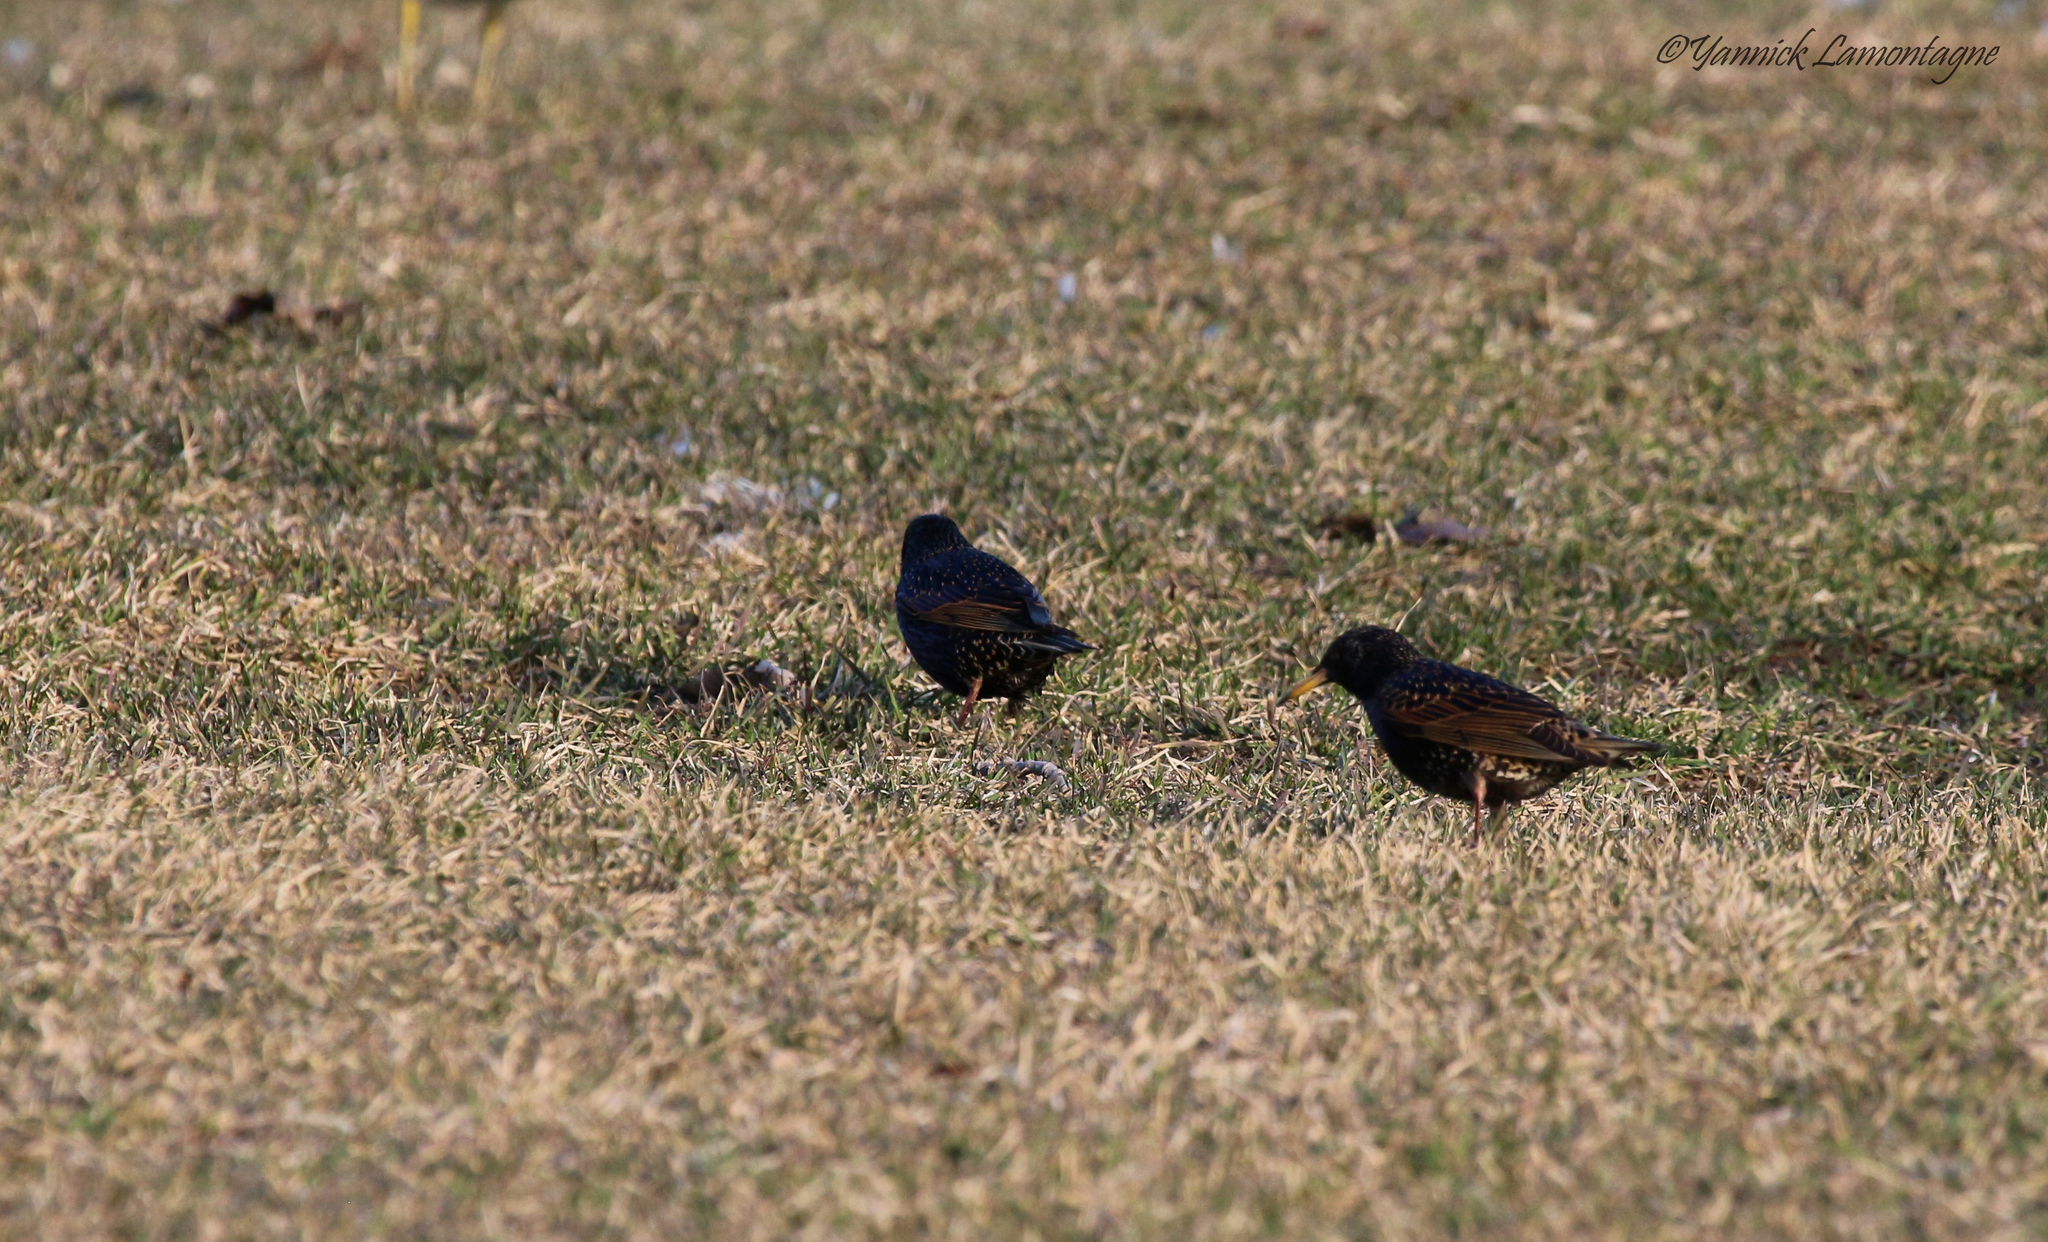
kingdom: Animalia
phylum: Chordata
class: Aves
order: Passeriformes
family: Sturnidae
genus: Sturnus
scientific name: Sturnus vulgaris
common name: Common starling
